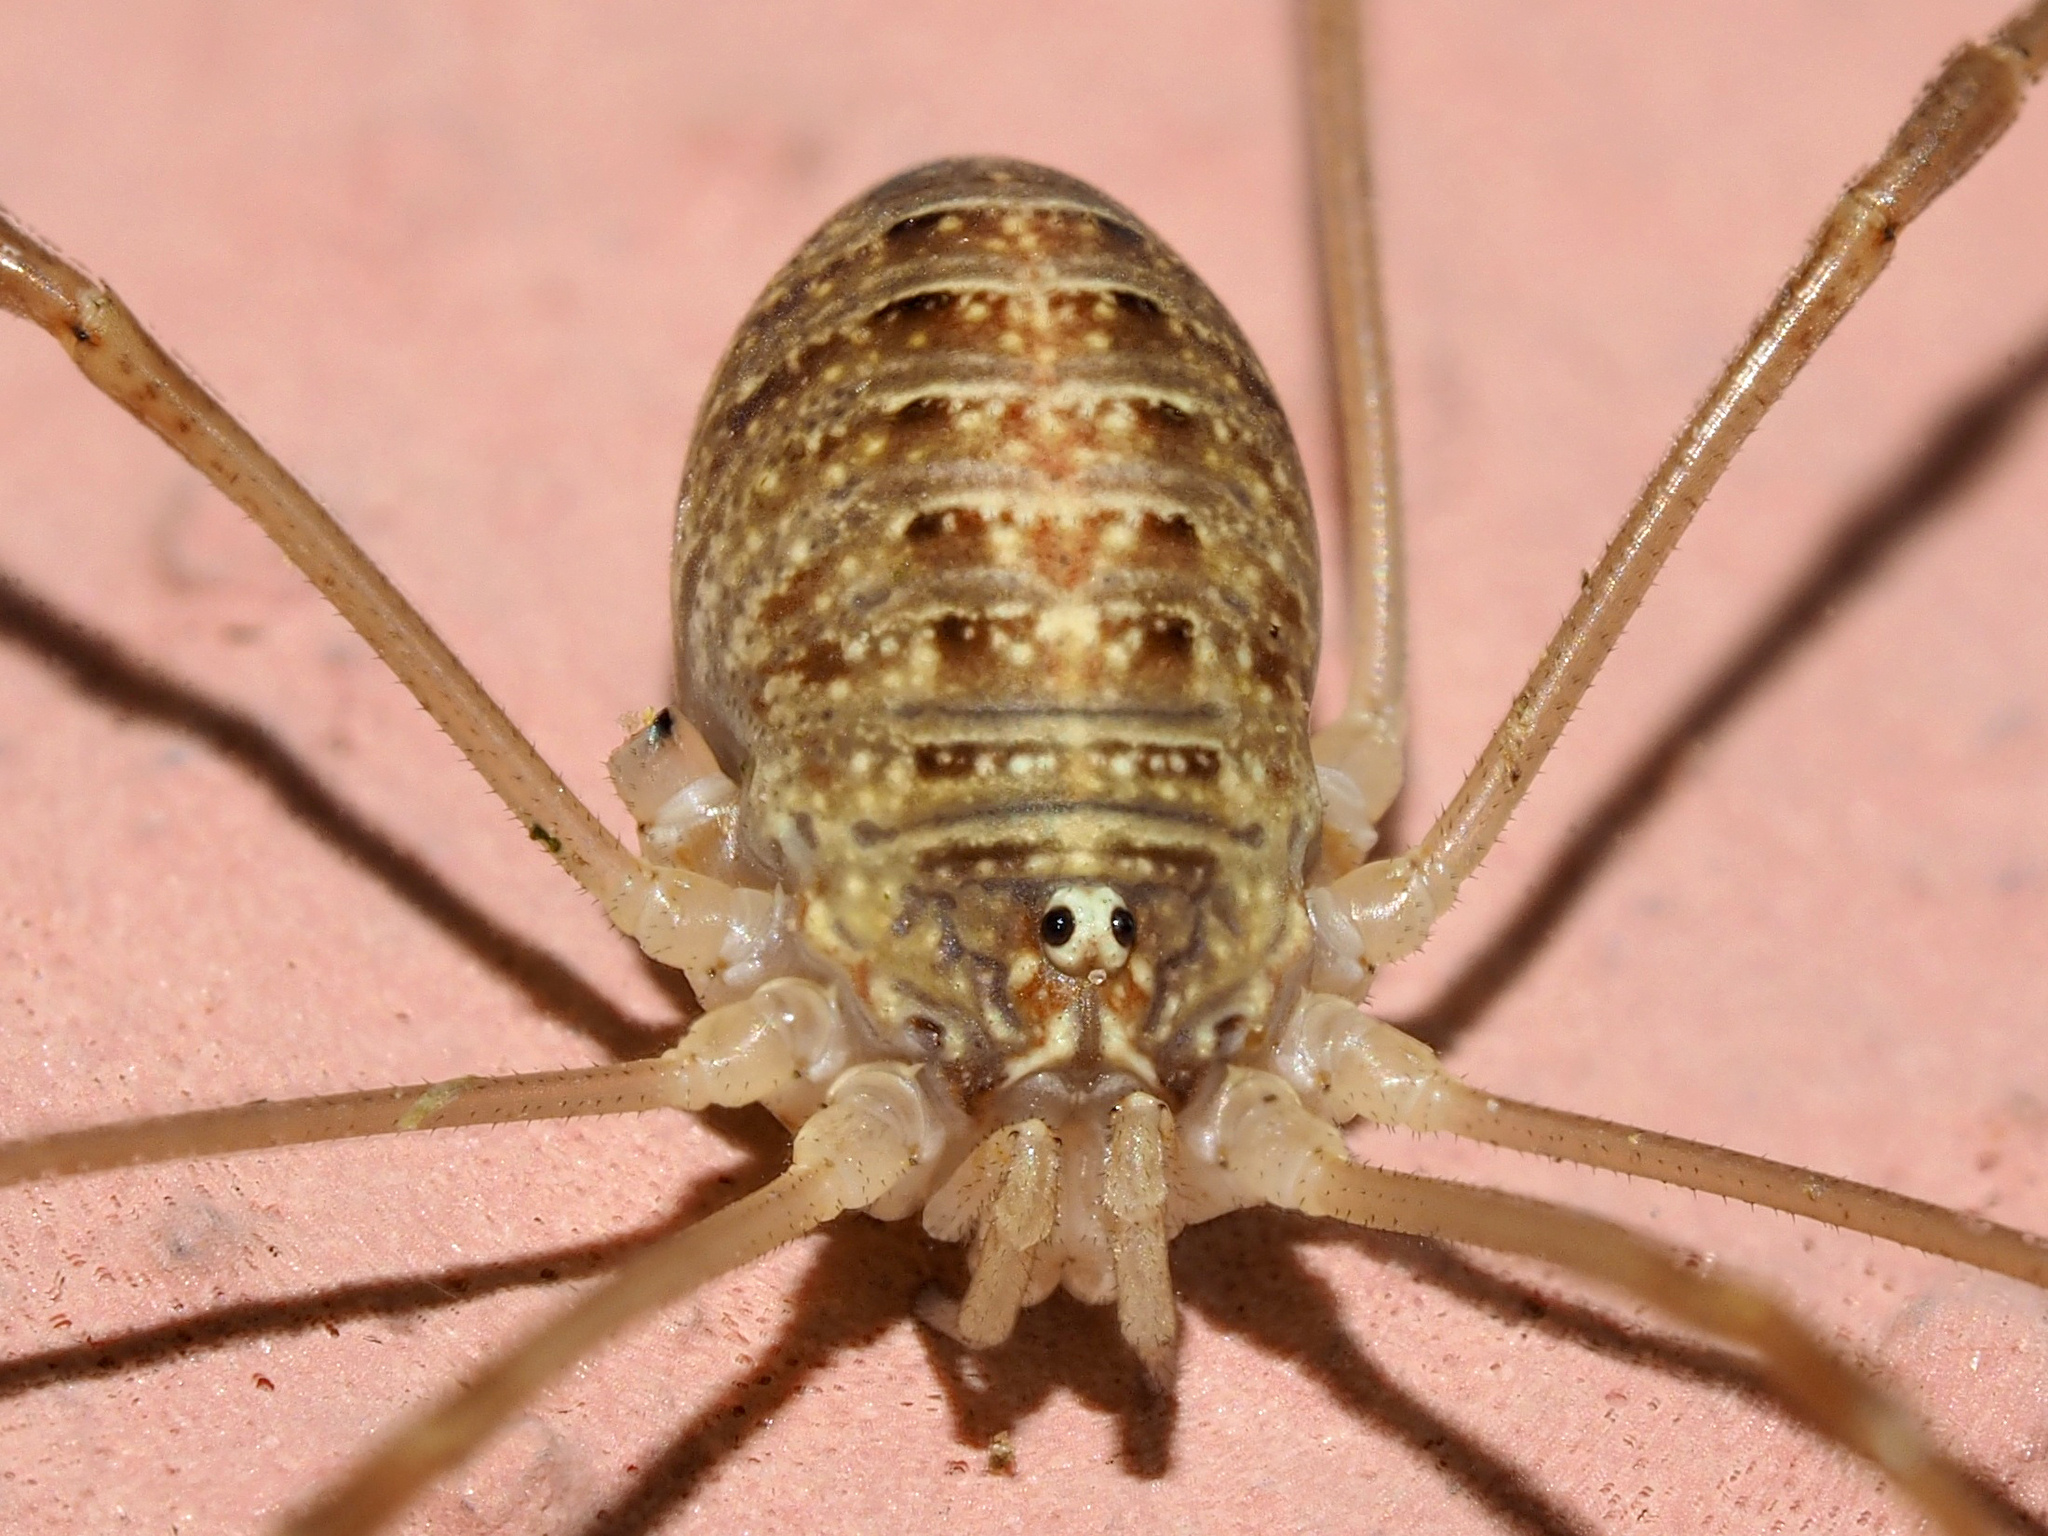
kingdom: Animalia
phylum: Arthropoda
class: Arachnida
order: Opiliones
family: Phalangiidae
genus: Opilio
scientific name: Opilio canestrinii
